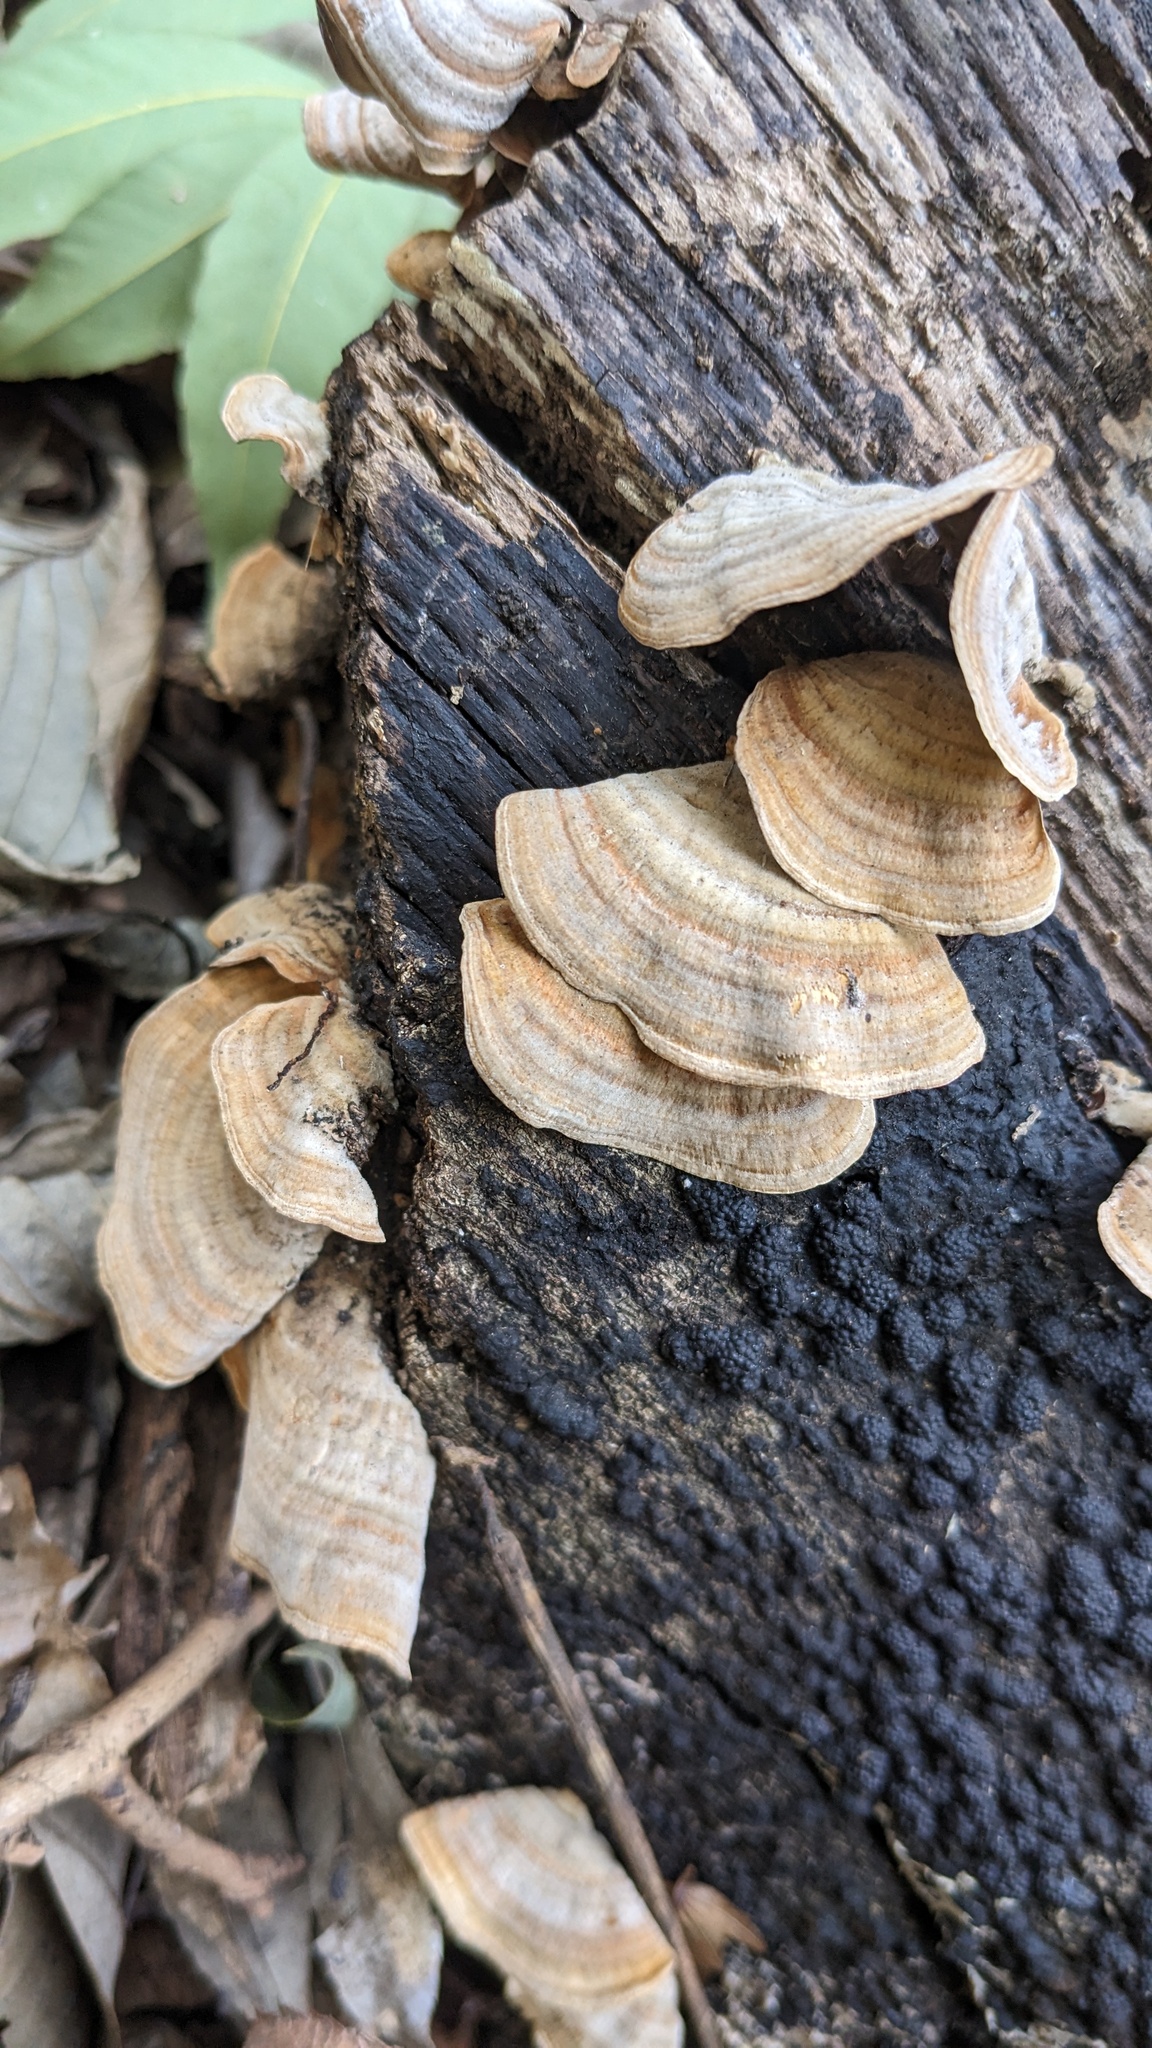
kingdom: Fungi
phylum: Basidiomycota
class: Agaricomycetes
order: Russulales
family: Stereaceae
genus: Stereum
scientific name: Stereum ostrea
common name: False turkeytail
